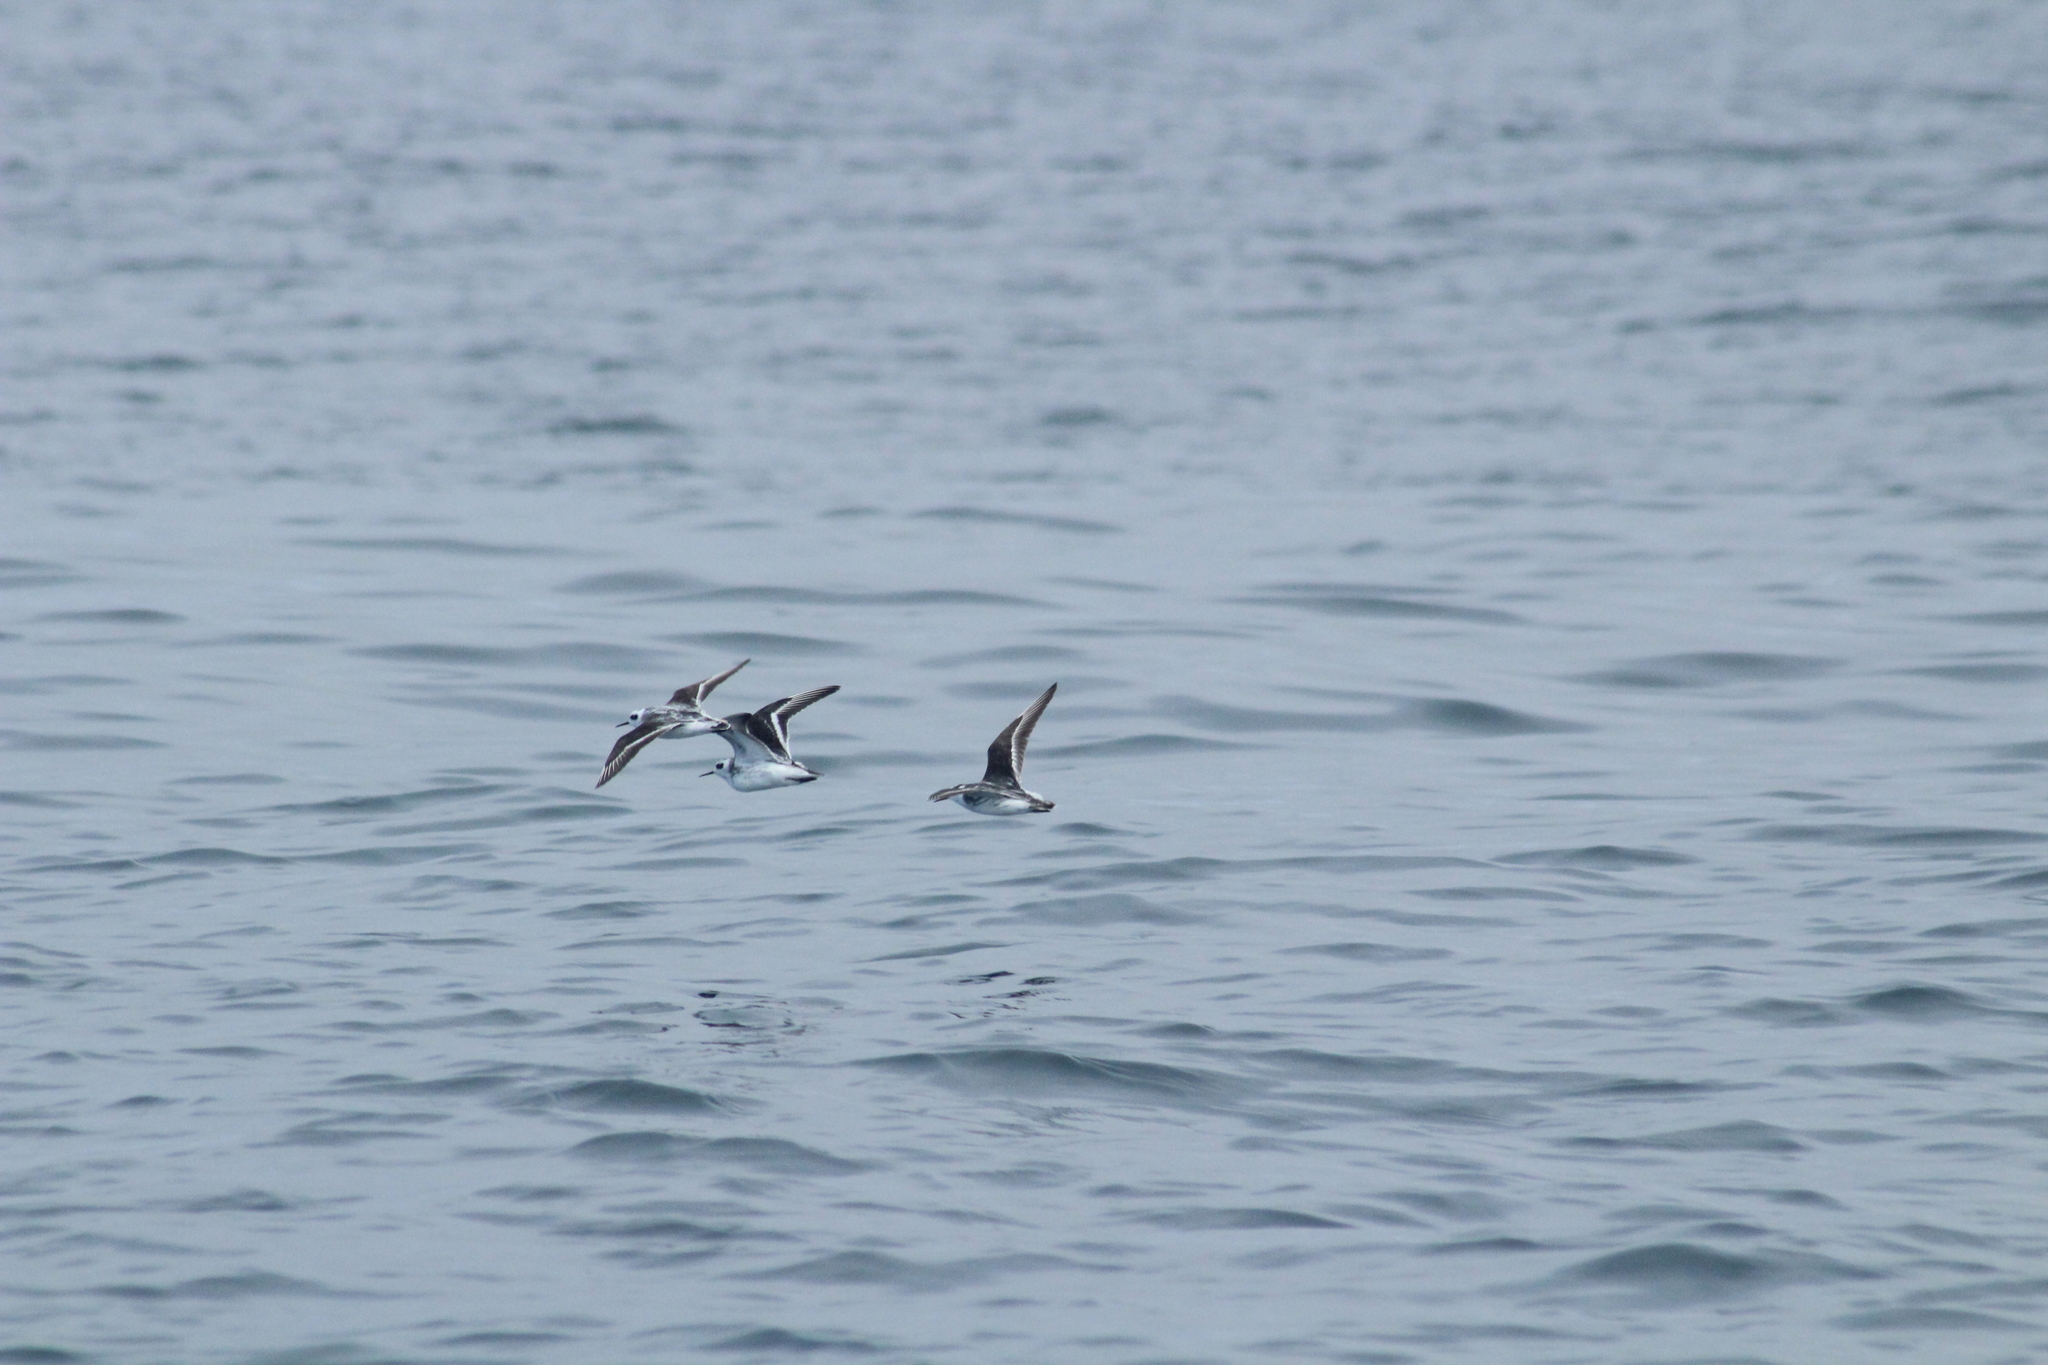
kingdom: Animalia
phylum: Chordata
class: Aves
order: Charadriiformes
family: Scolopacidae
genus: Phalaropus
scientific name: Phalaropus lobatus
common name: Red-necked phalarope
